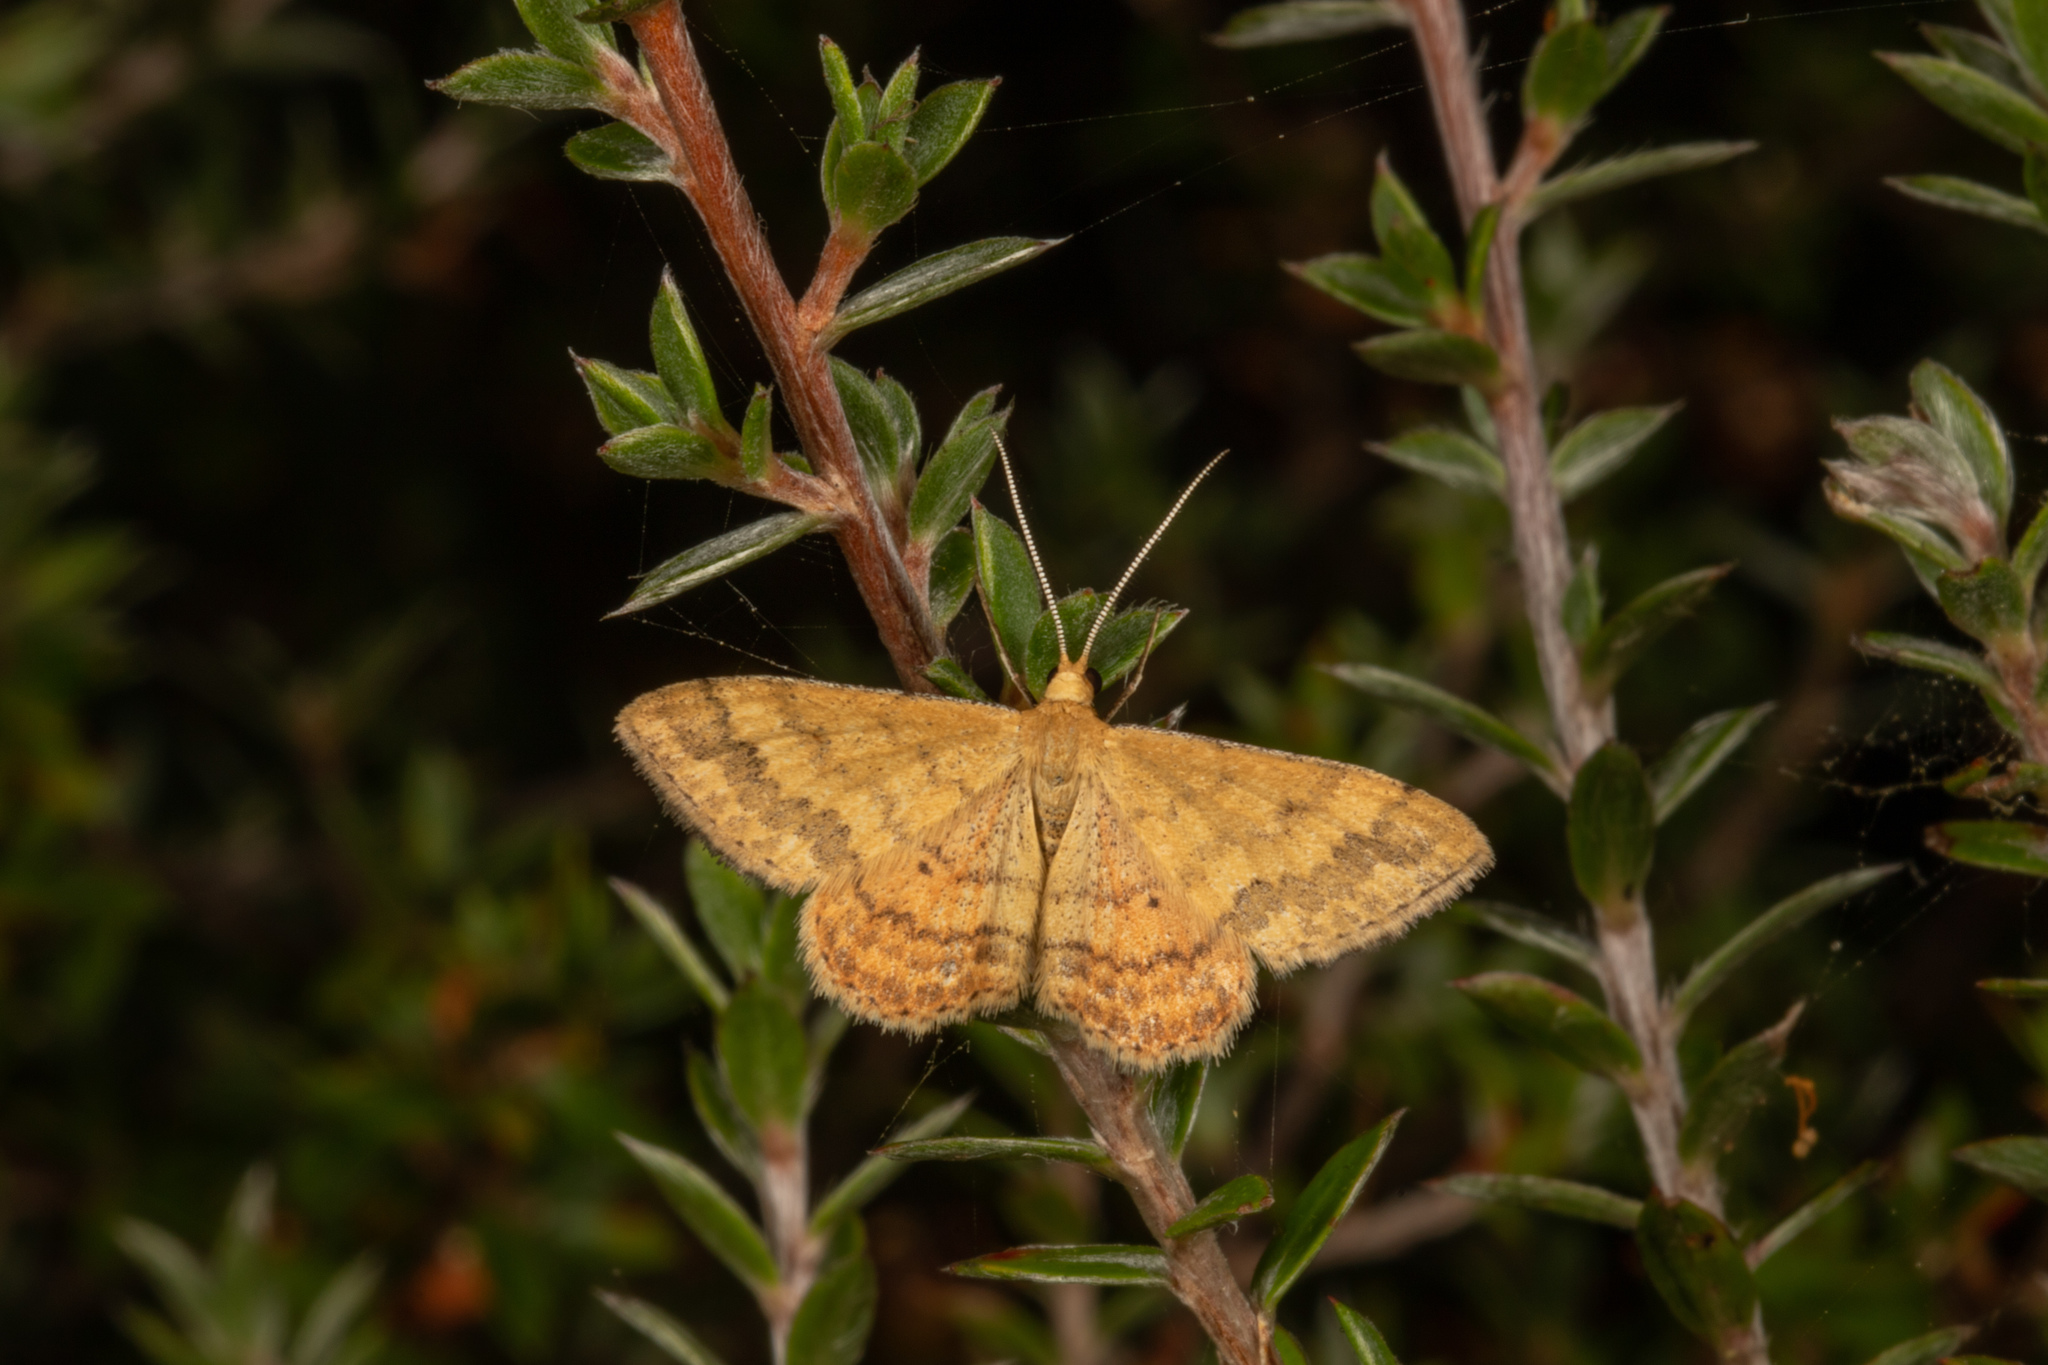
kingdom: Animalia
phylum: Arthropoda
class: Insecta
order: Lepidoptera
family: Geometridae
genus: Scopula
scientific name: Scopula rubraria
